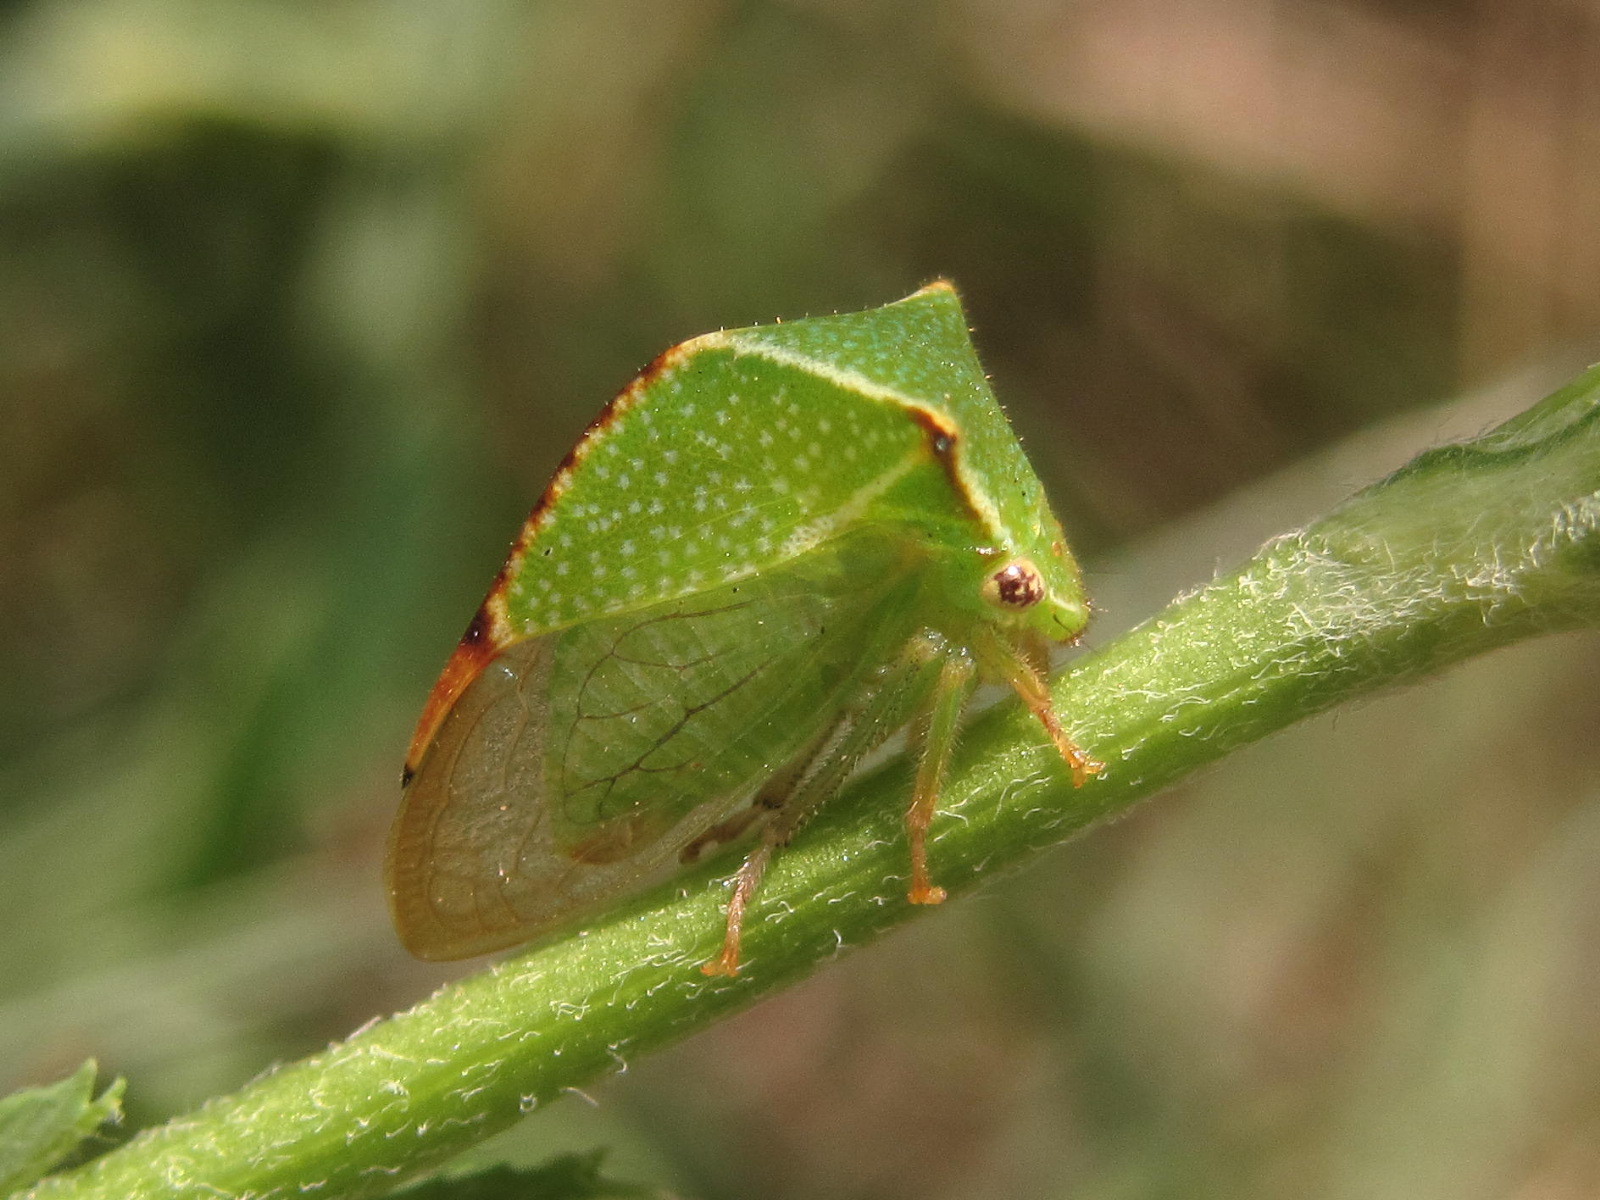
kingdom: Animalia
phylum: Arthropoda
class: Insecta
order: Hemiptera
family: Membracidae
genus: Stictocephala
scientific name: Stictocephala bisonia
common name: American buffalo treehopper
